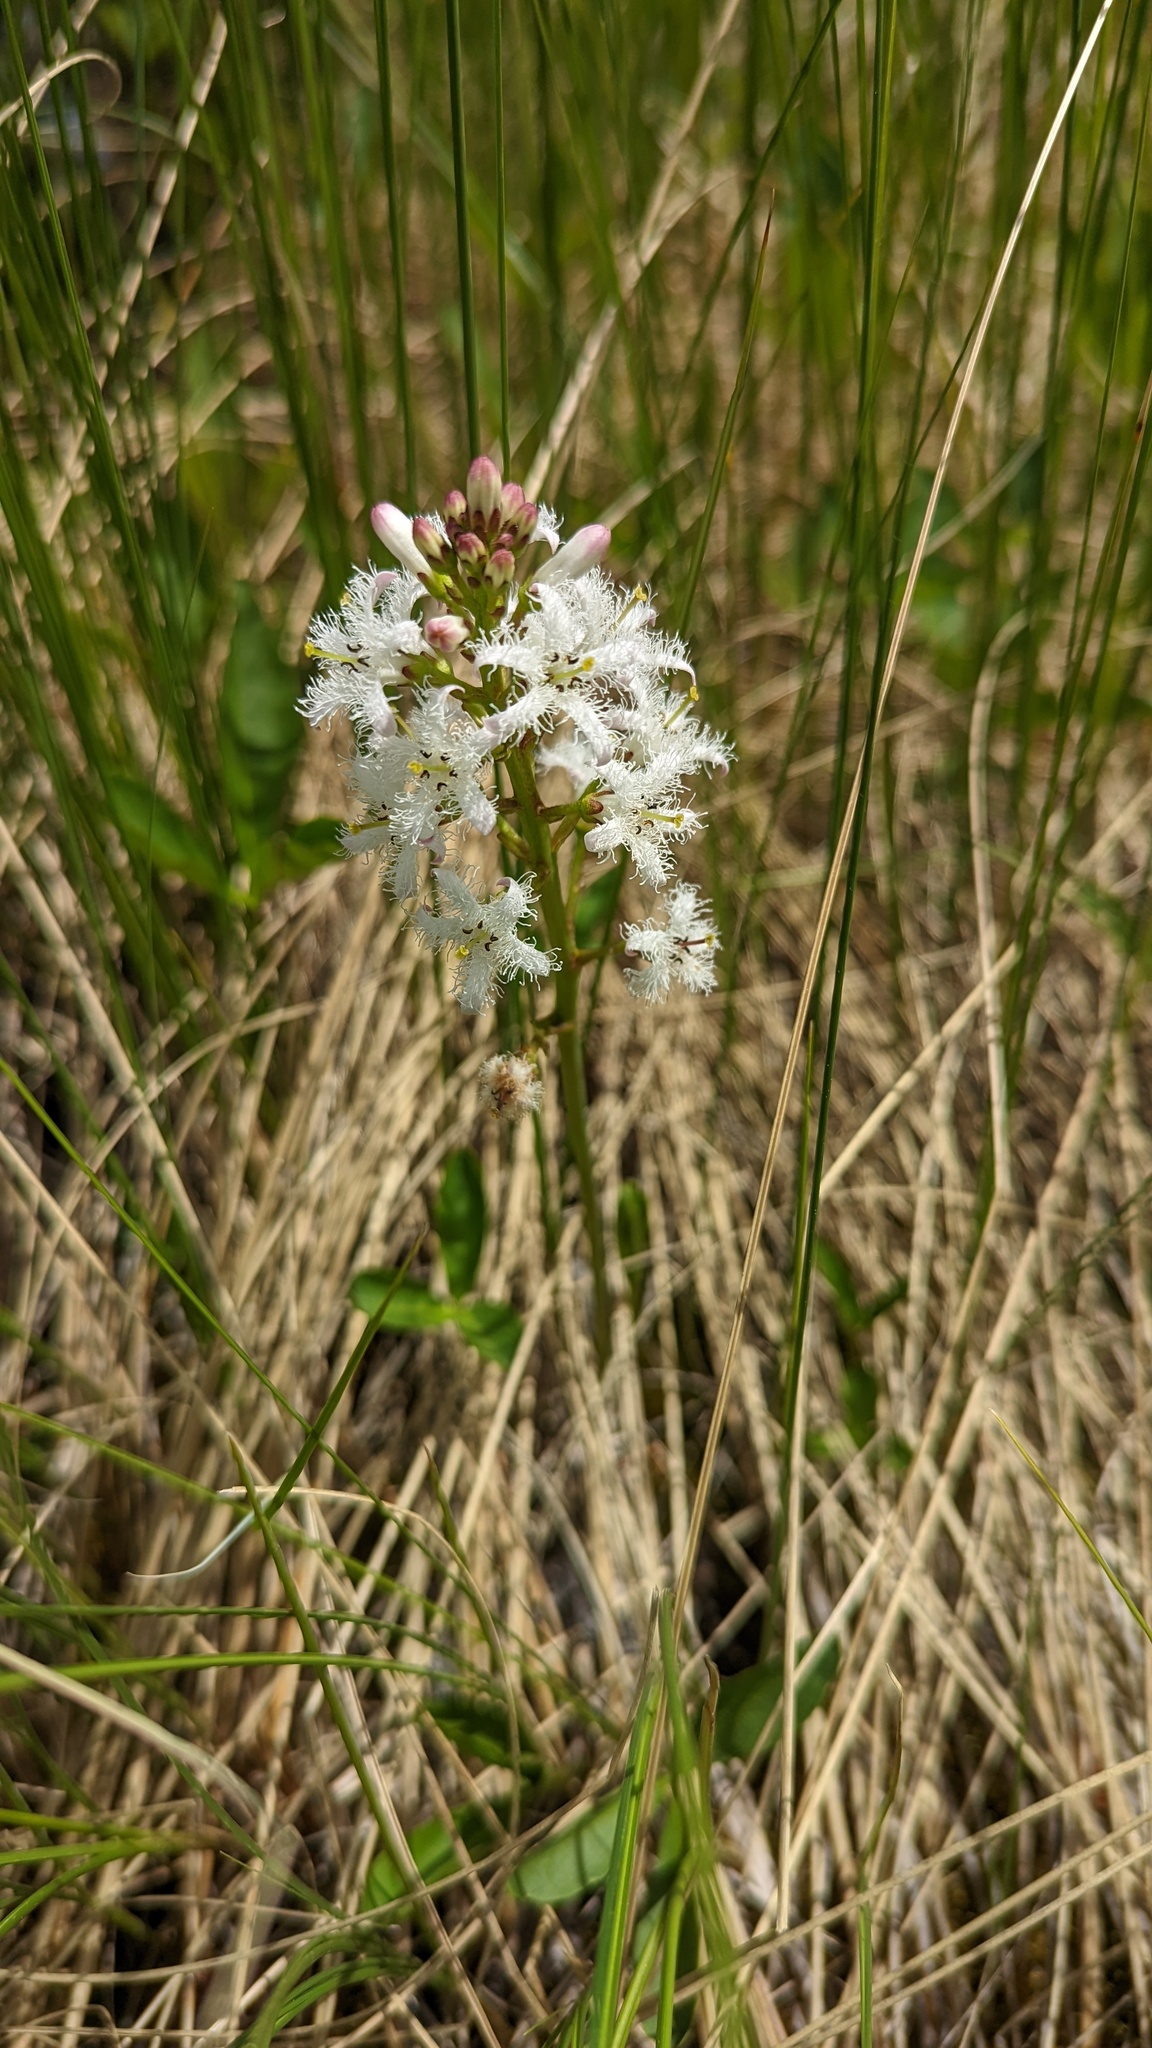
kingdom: Plantae
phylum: Tracheophyta
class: Magnoliopsida
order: Asterales
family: Menyanthaceae
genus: Menyanthes
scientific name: Menyanthes trifoliata
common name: Bogbean
